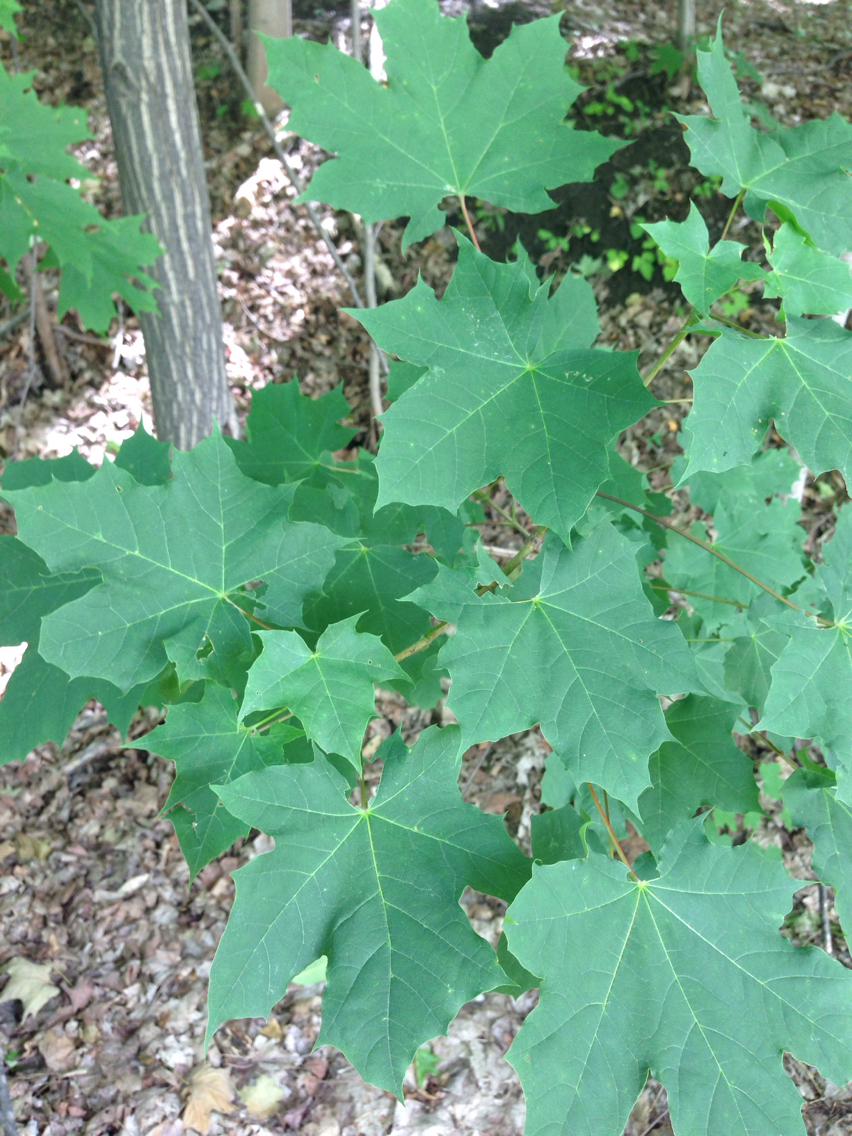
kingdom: Plantae
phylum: Tracheophyta
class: Magnoliopsida
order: Sapindales
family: Sapindaceae
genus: Acer
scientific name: Acer platanoides
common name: Norway maple
